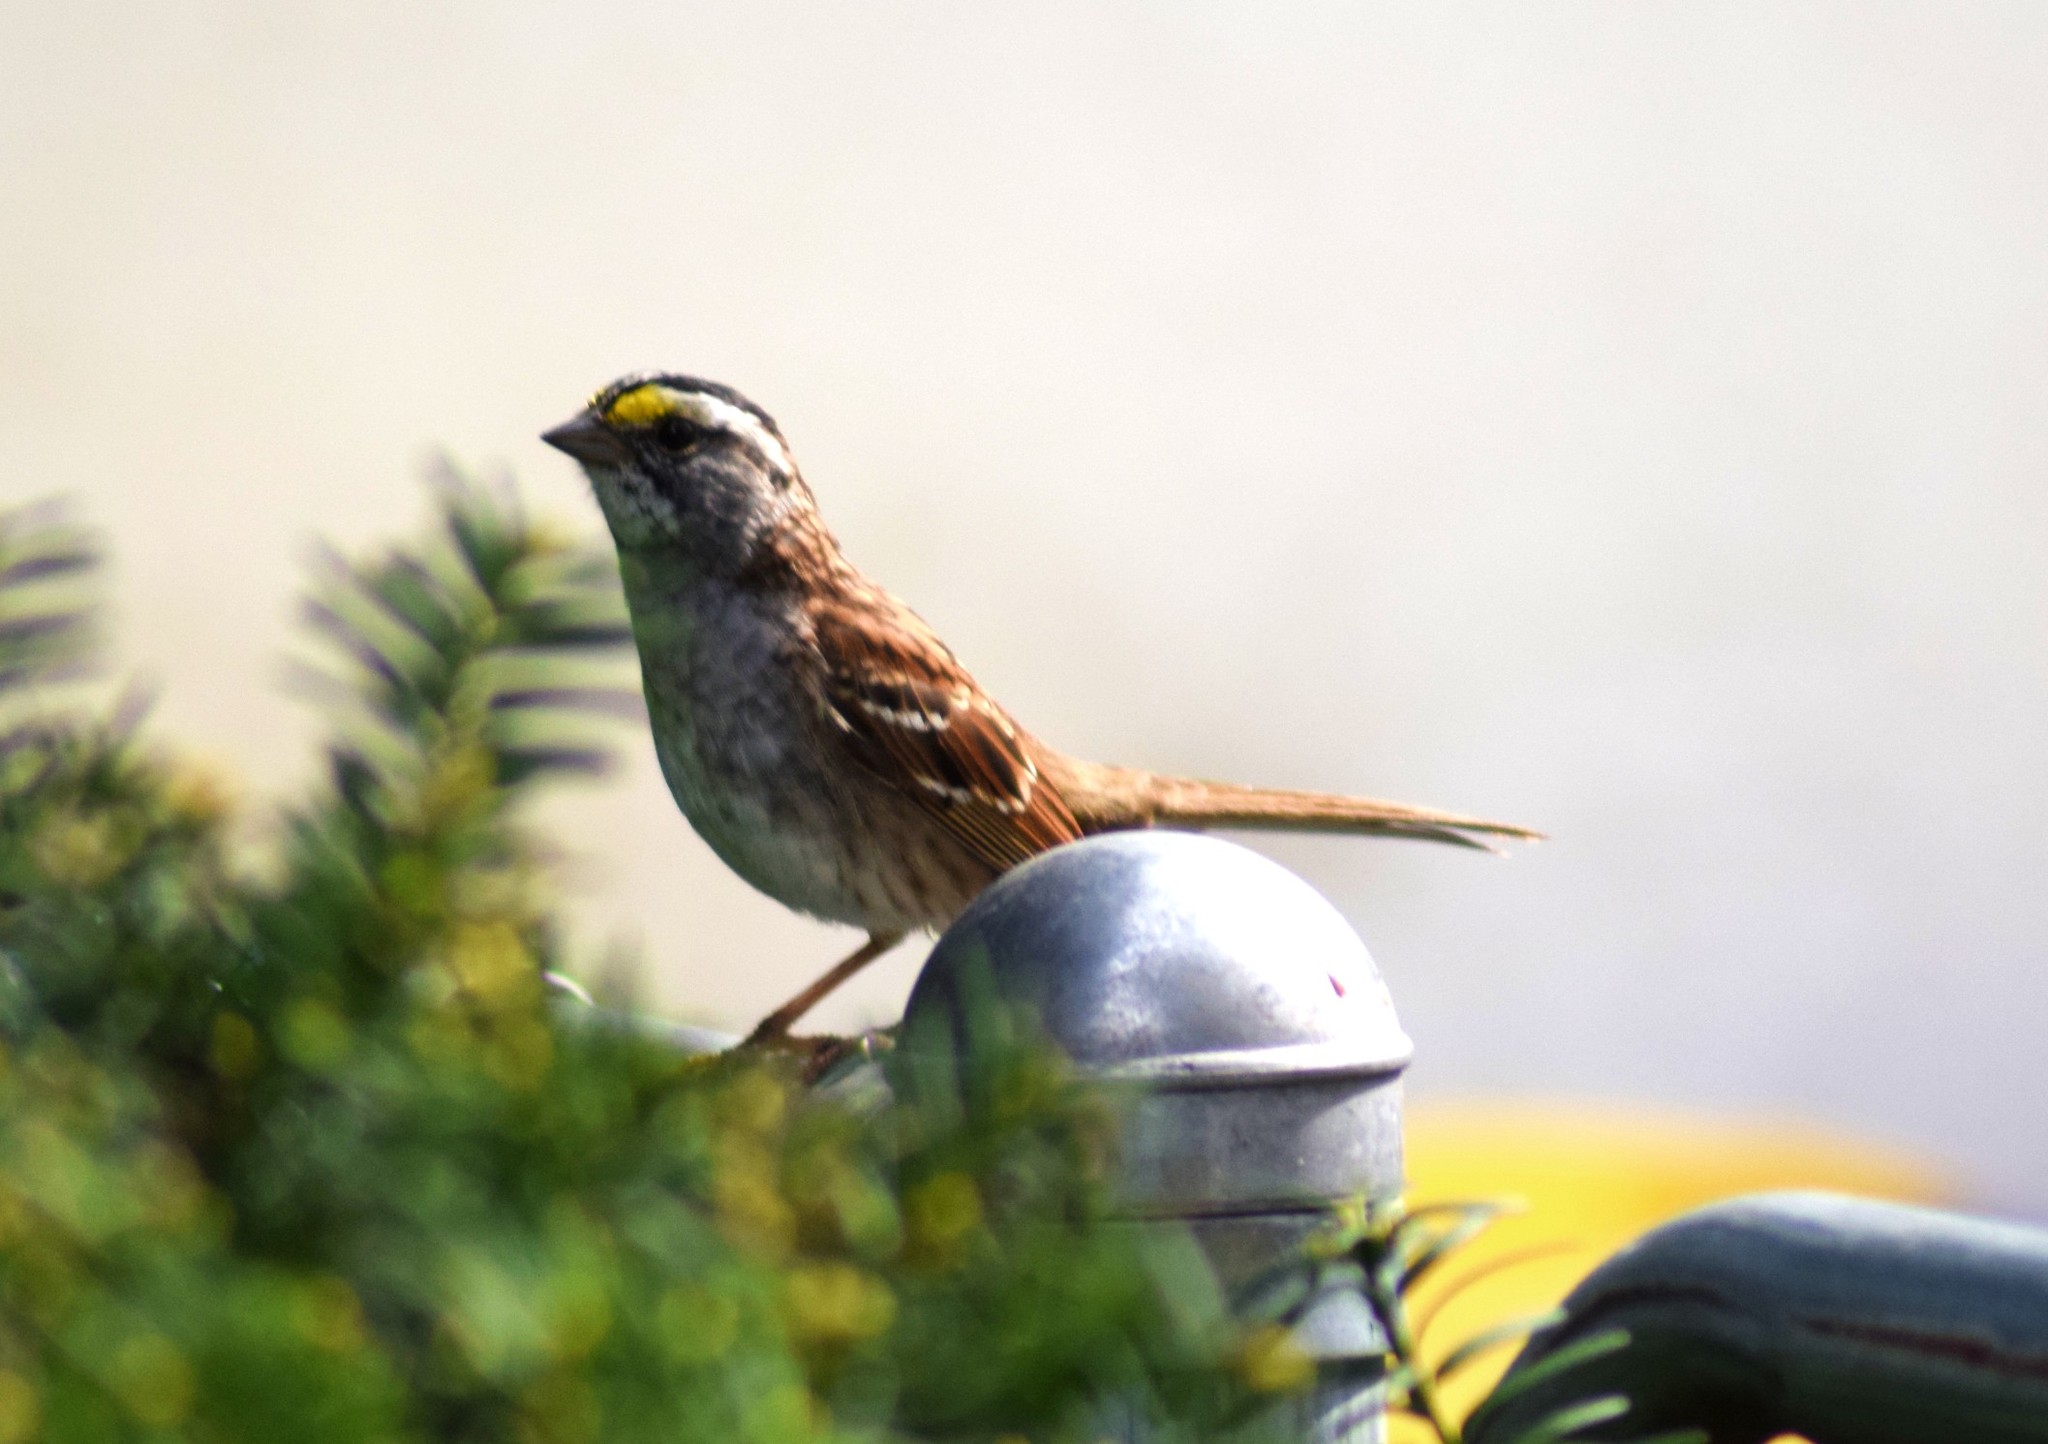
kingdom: Animalia
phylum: Chordata
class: Aves
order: Passeriformes
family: Passerellidae
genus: Zonotrichia
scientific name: Zonotrichia albicollis
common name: White-throated sparrow
